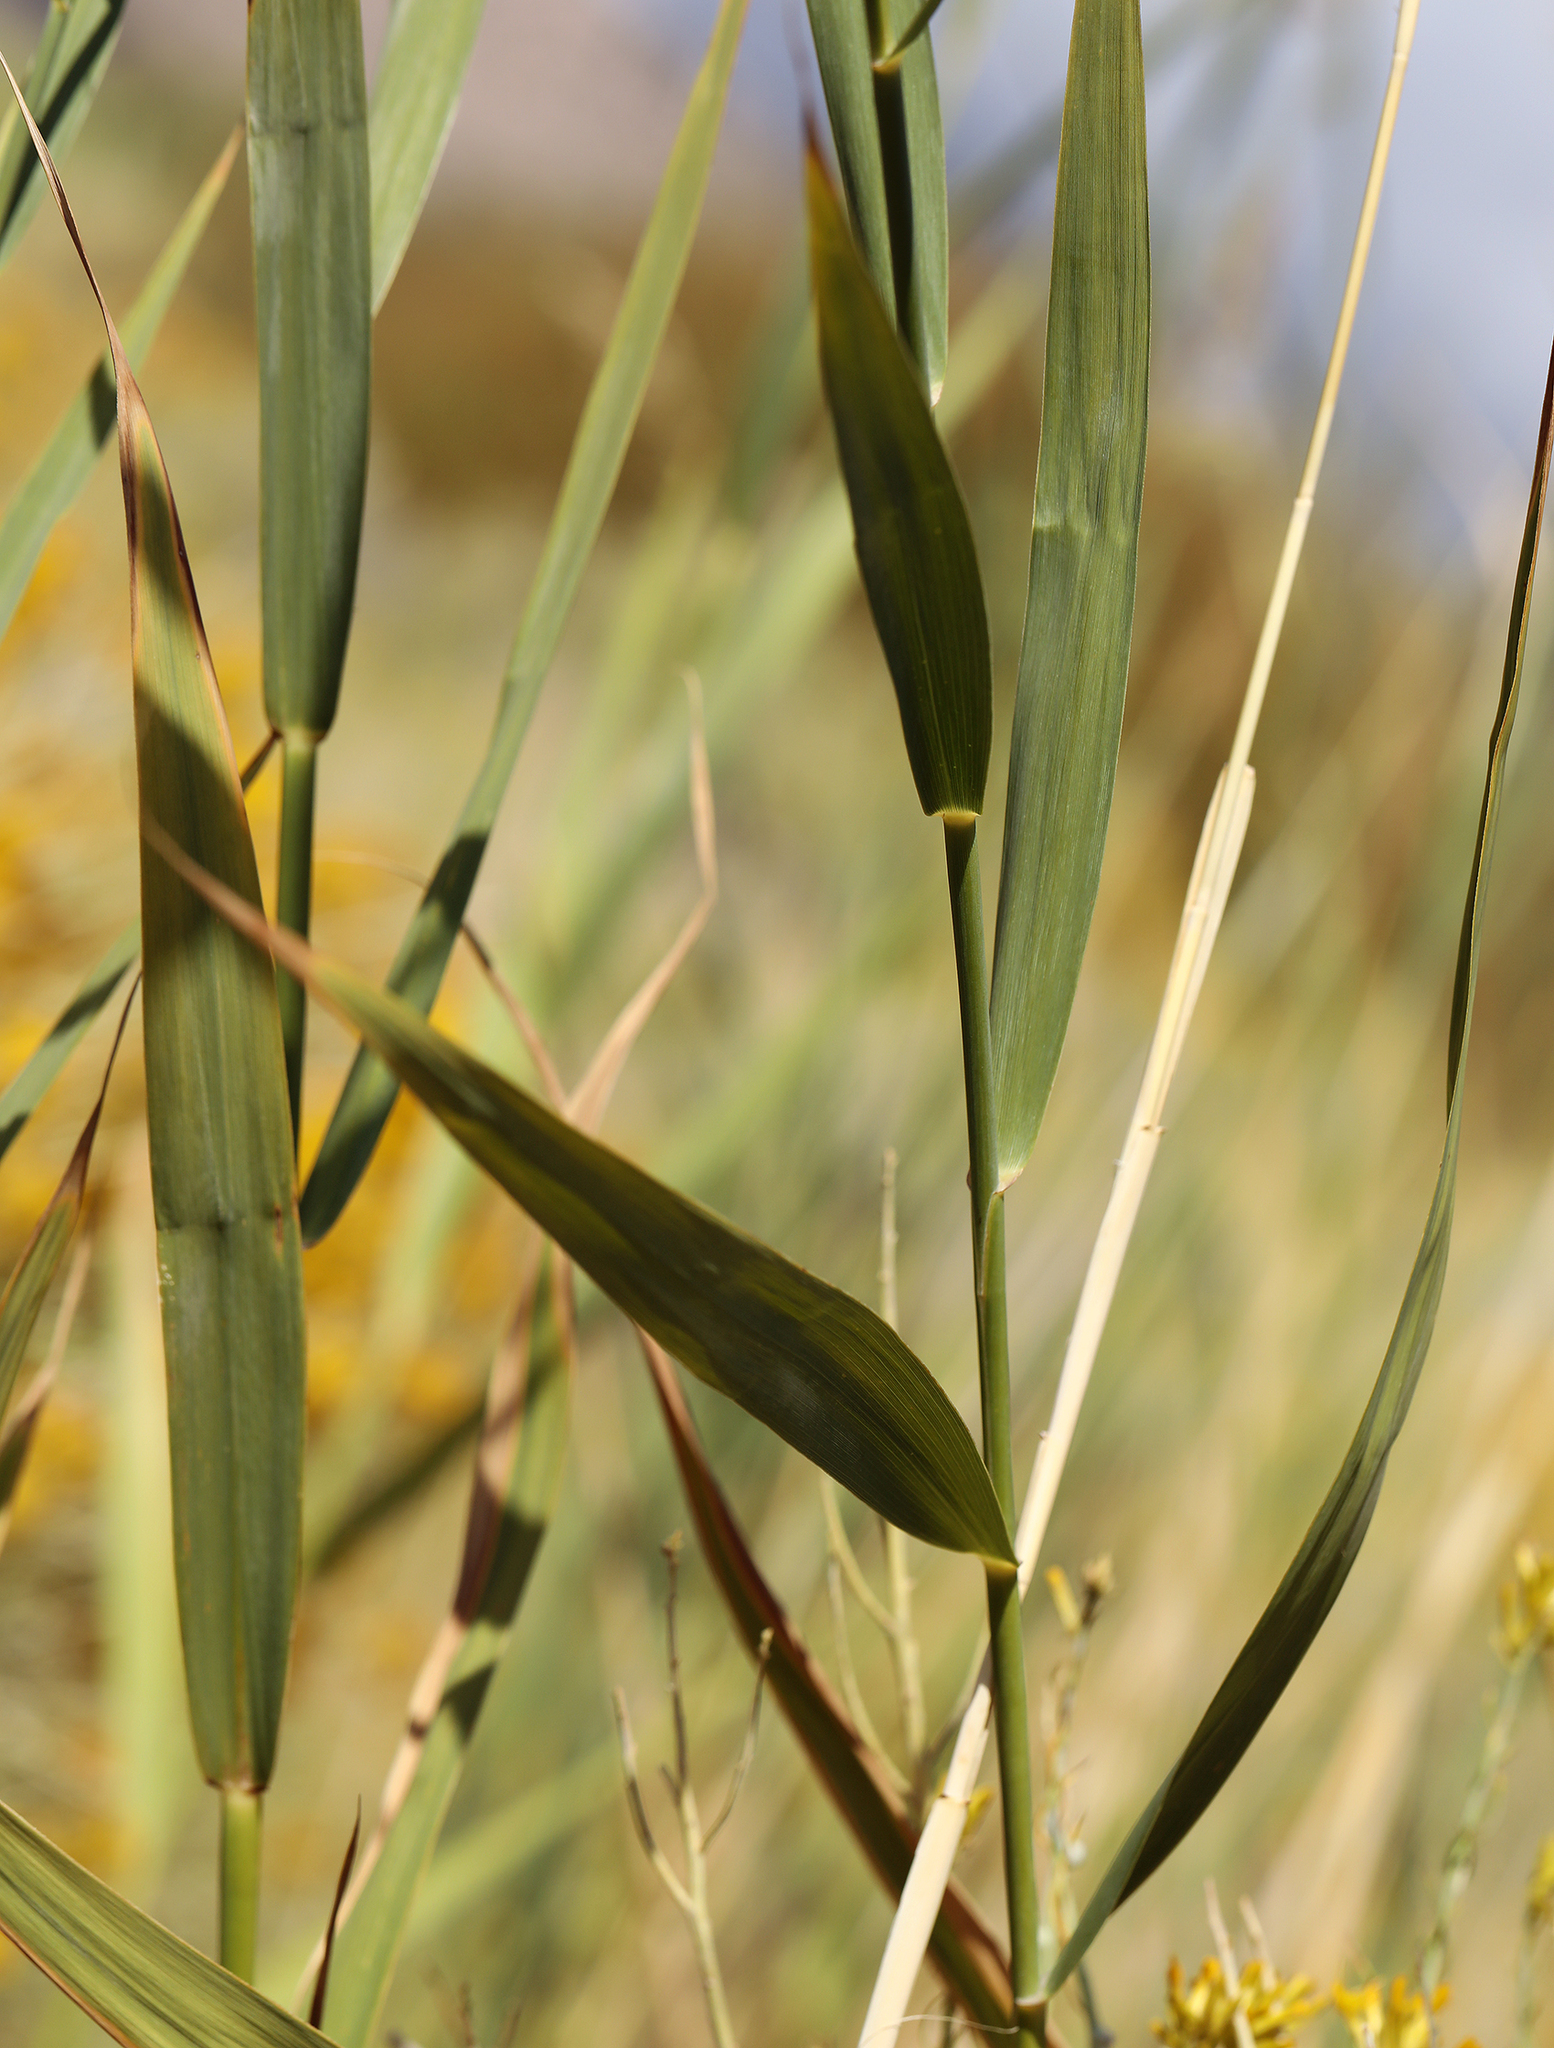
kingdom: Plantae
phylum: Tracheophyta
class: Liliopsida
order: Poales
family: Poaceae
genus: Phragmites
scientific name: Phragmites australis
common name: Common reed
